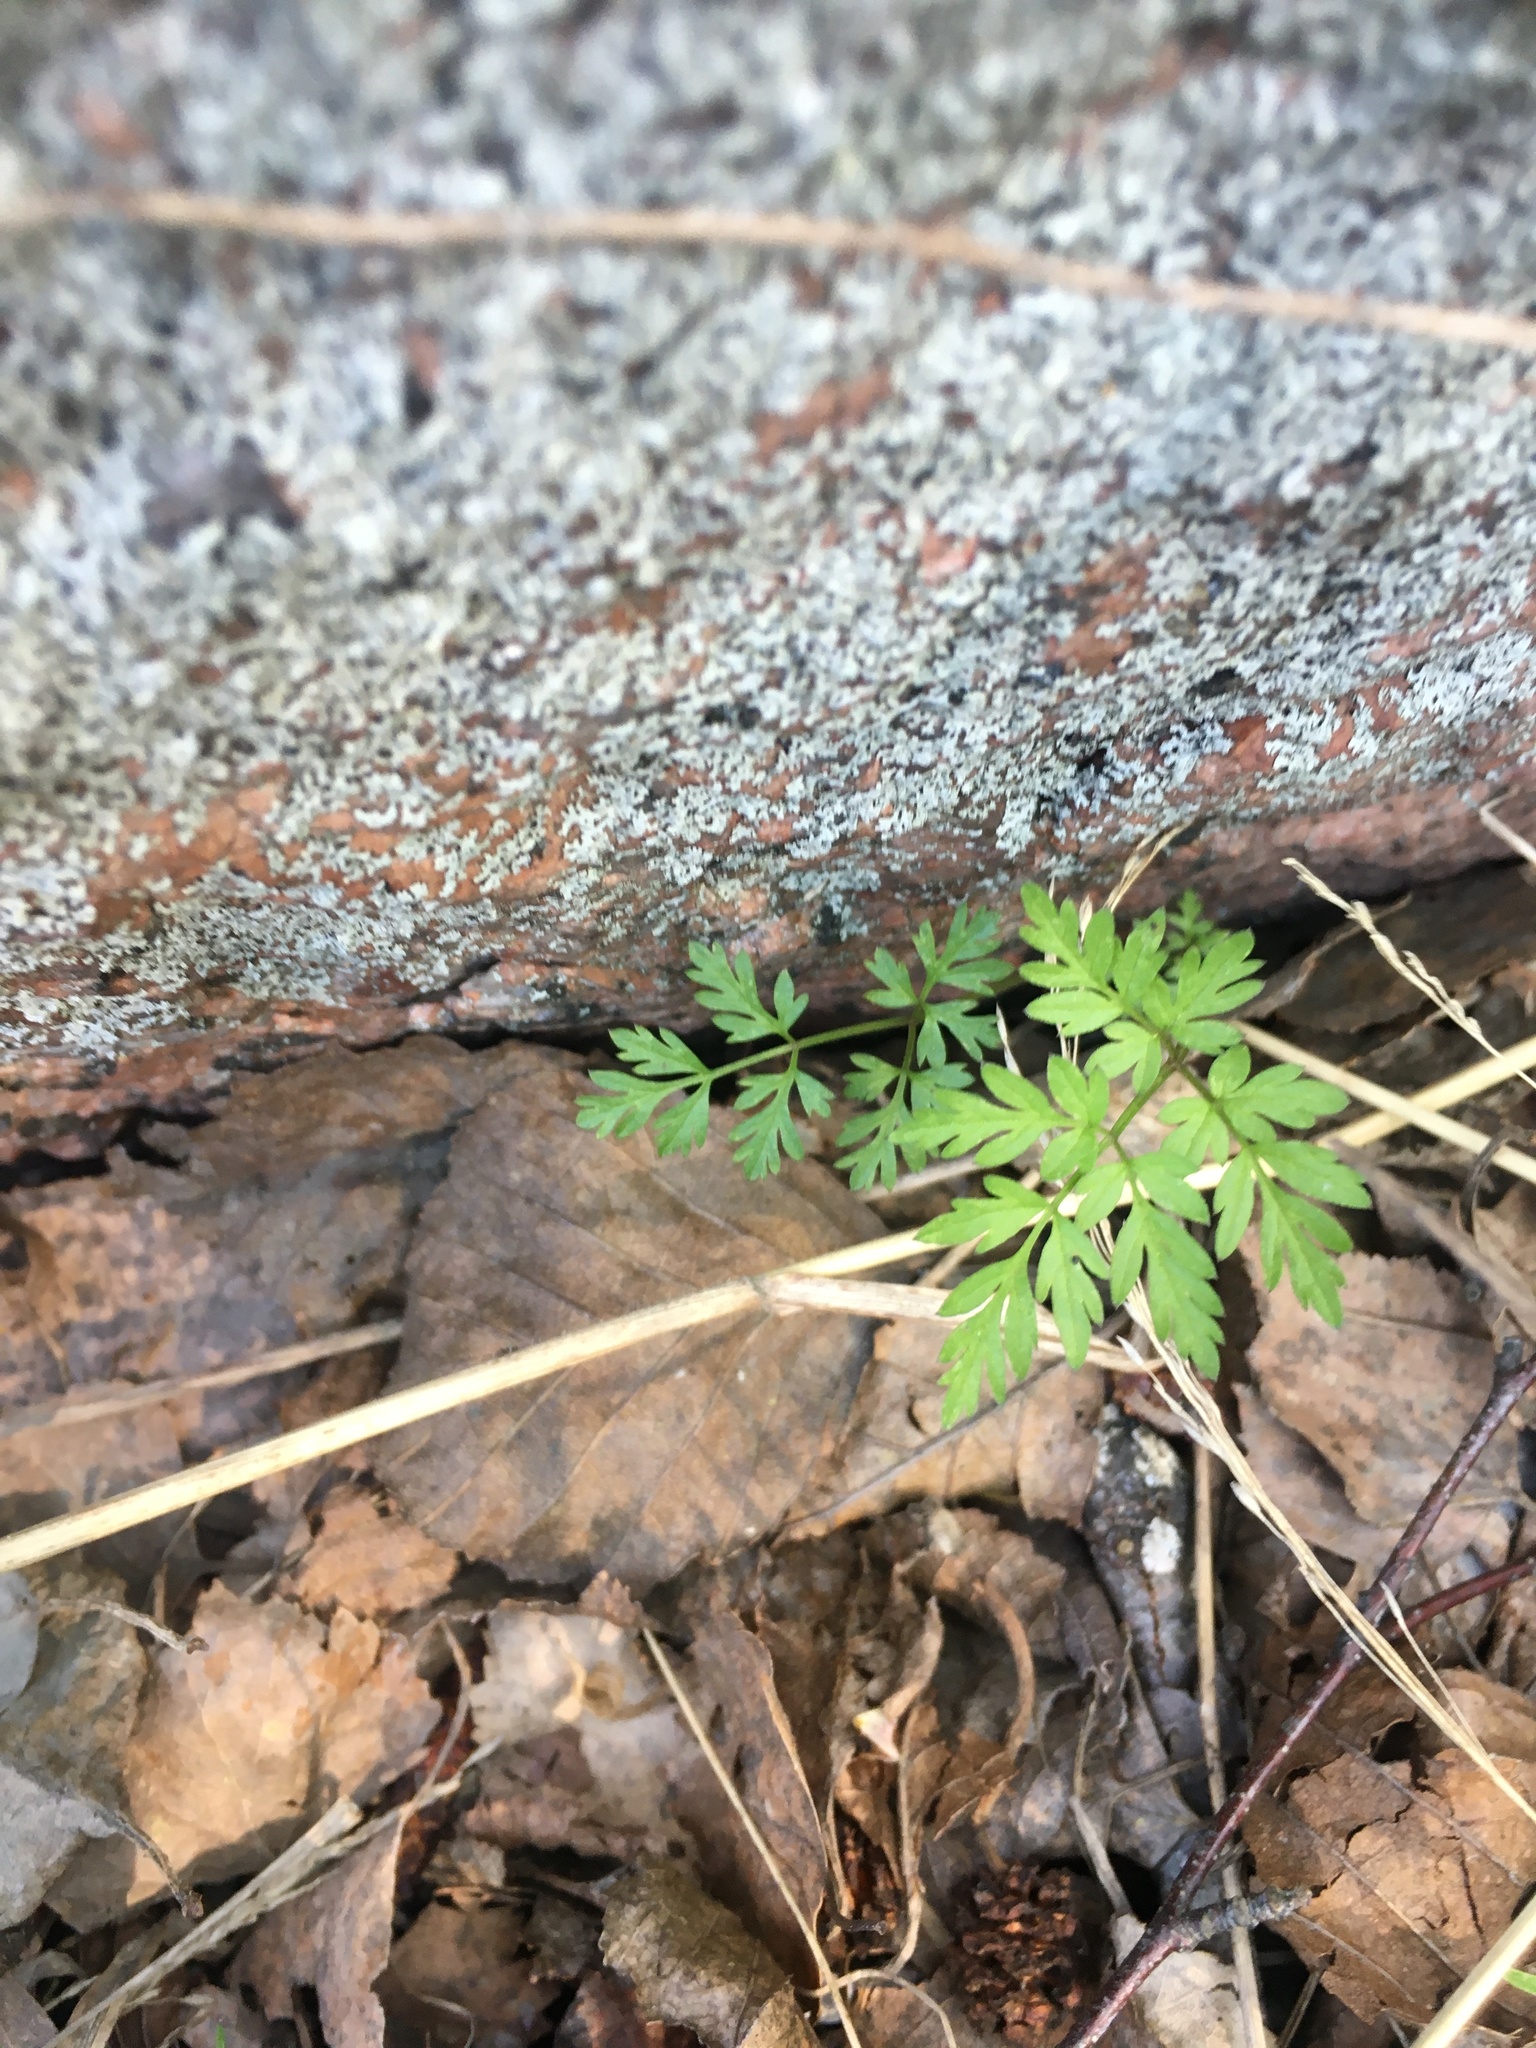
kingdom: Plantae
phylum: Tracheophyta
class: Magnoliopsida
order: Apiales
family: Apiaceae
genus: Anthriscus
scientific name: Anthriscus sylvestris
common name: Cow parsley
